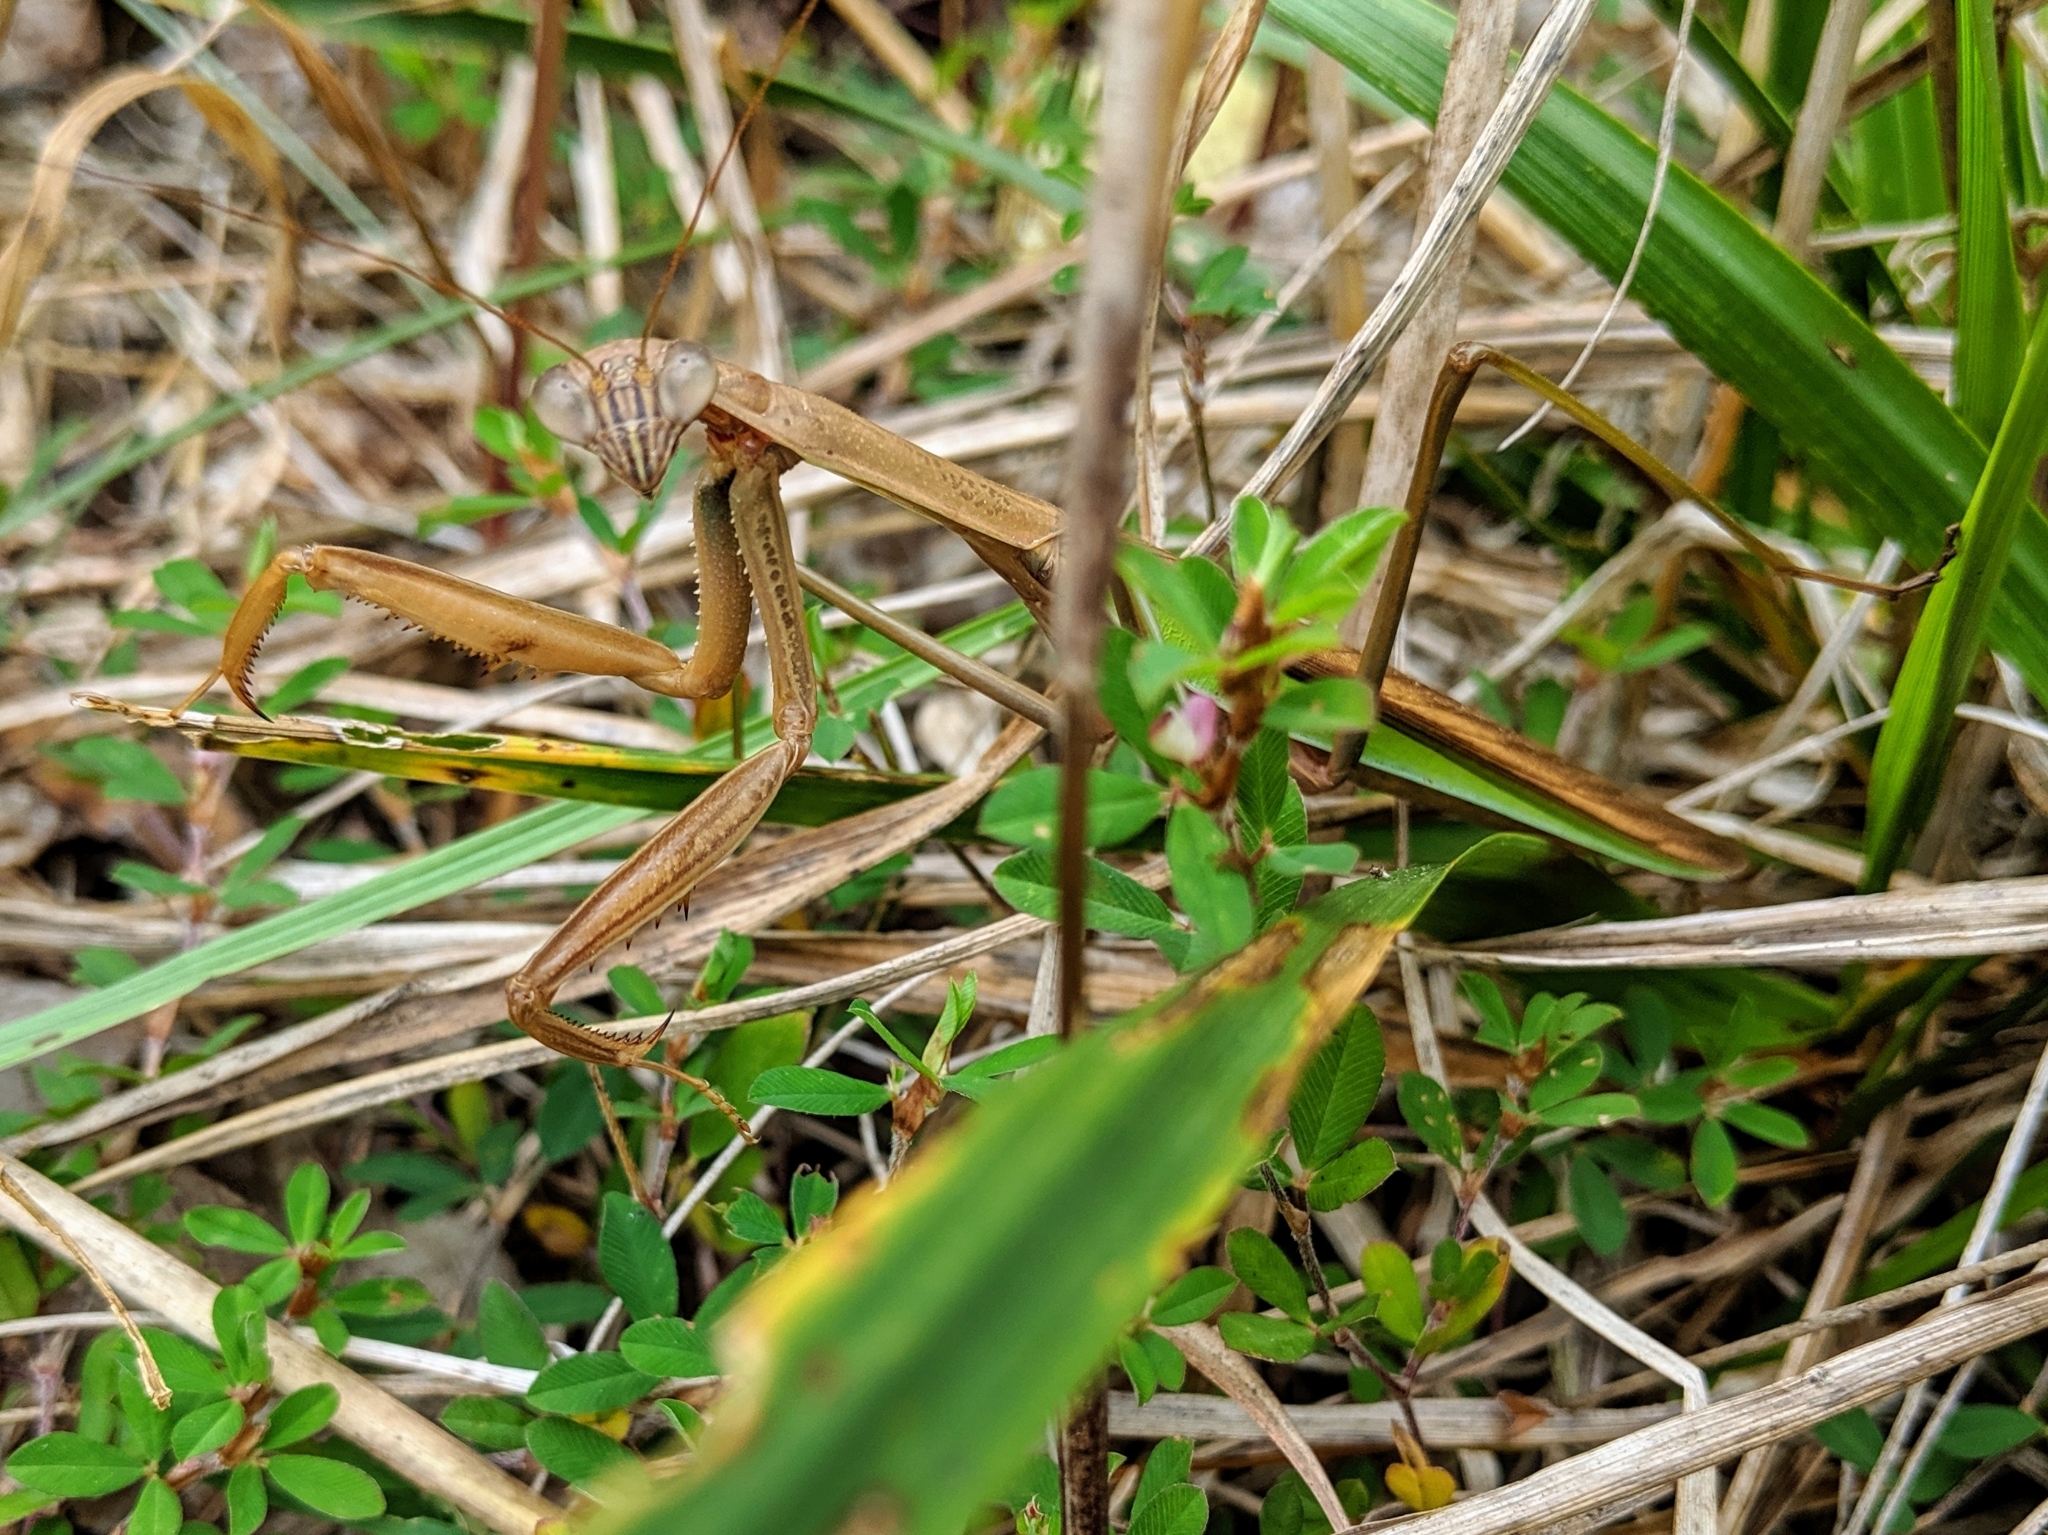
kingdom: Animalia
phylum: Arthropoda
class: Insecta
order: Mantodea
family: Mantidae
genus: Tenodera
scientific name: Tenodera sinensis
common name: Chinese mantis
